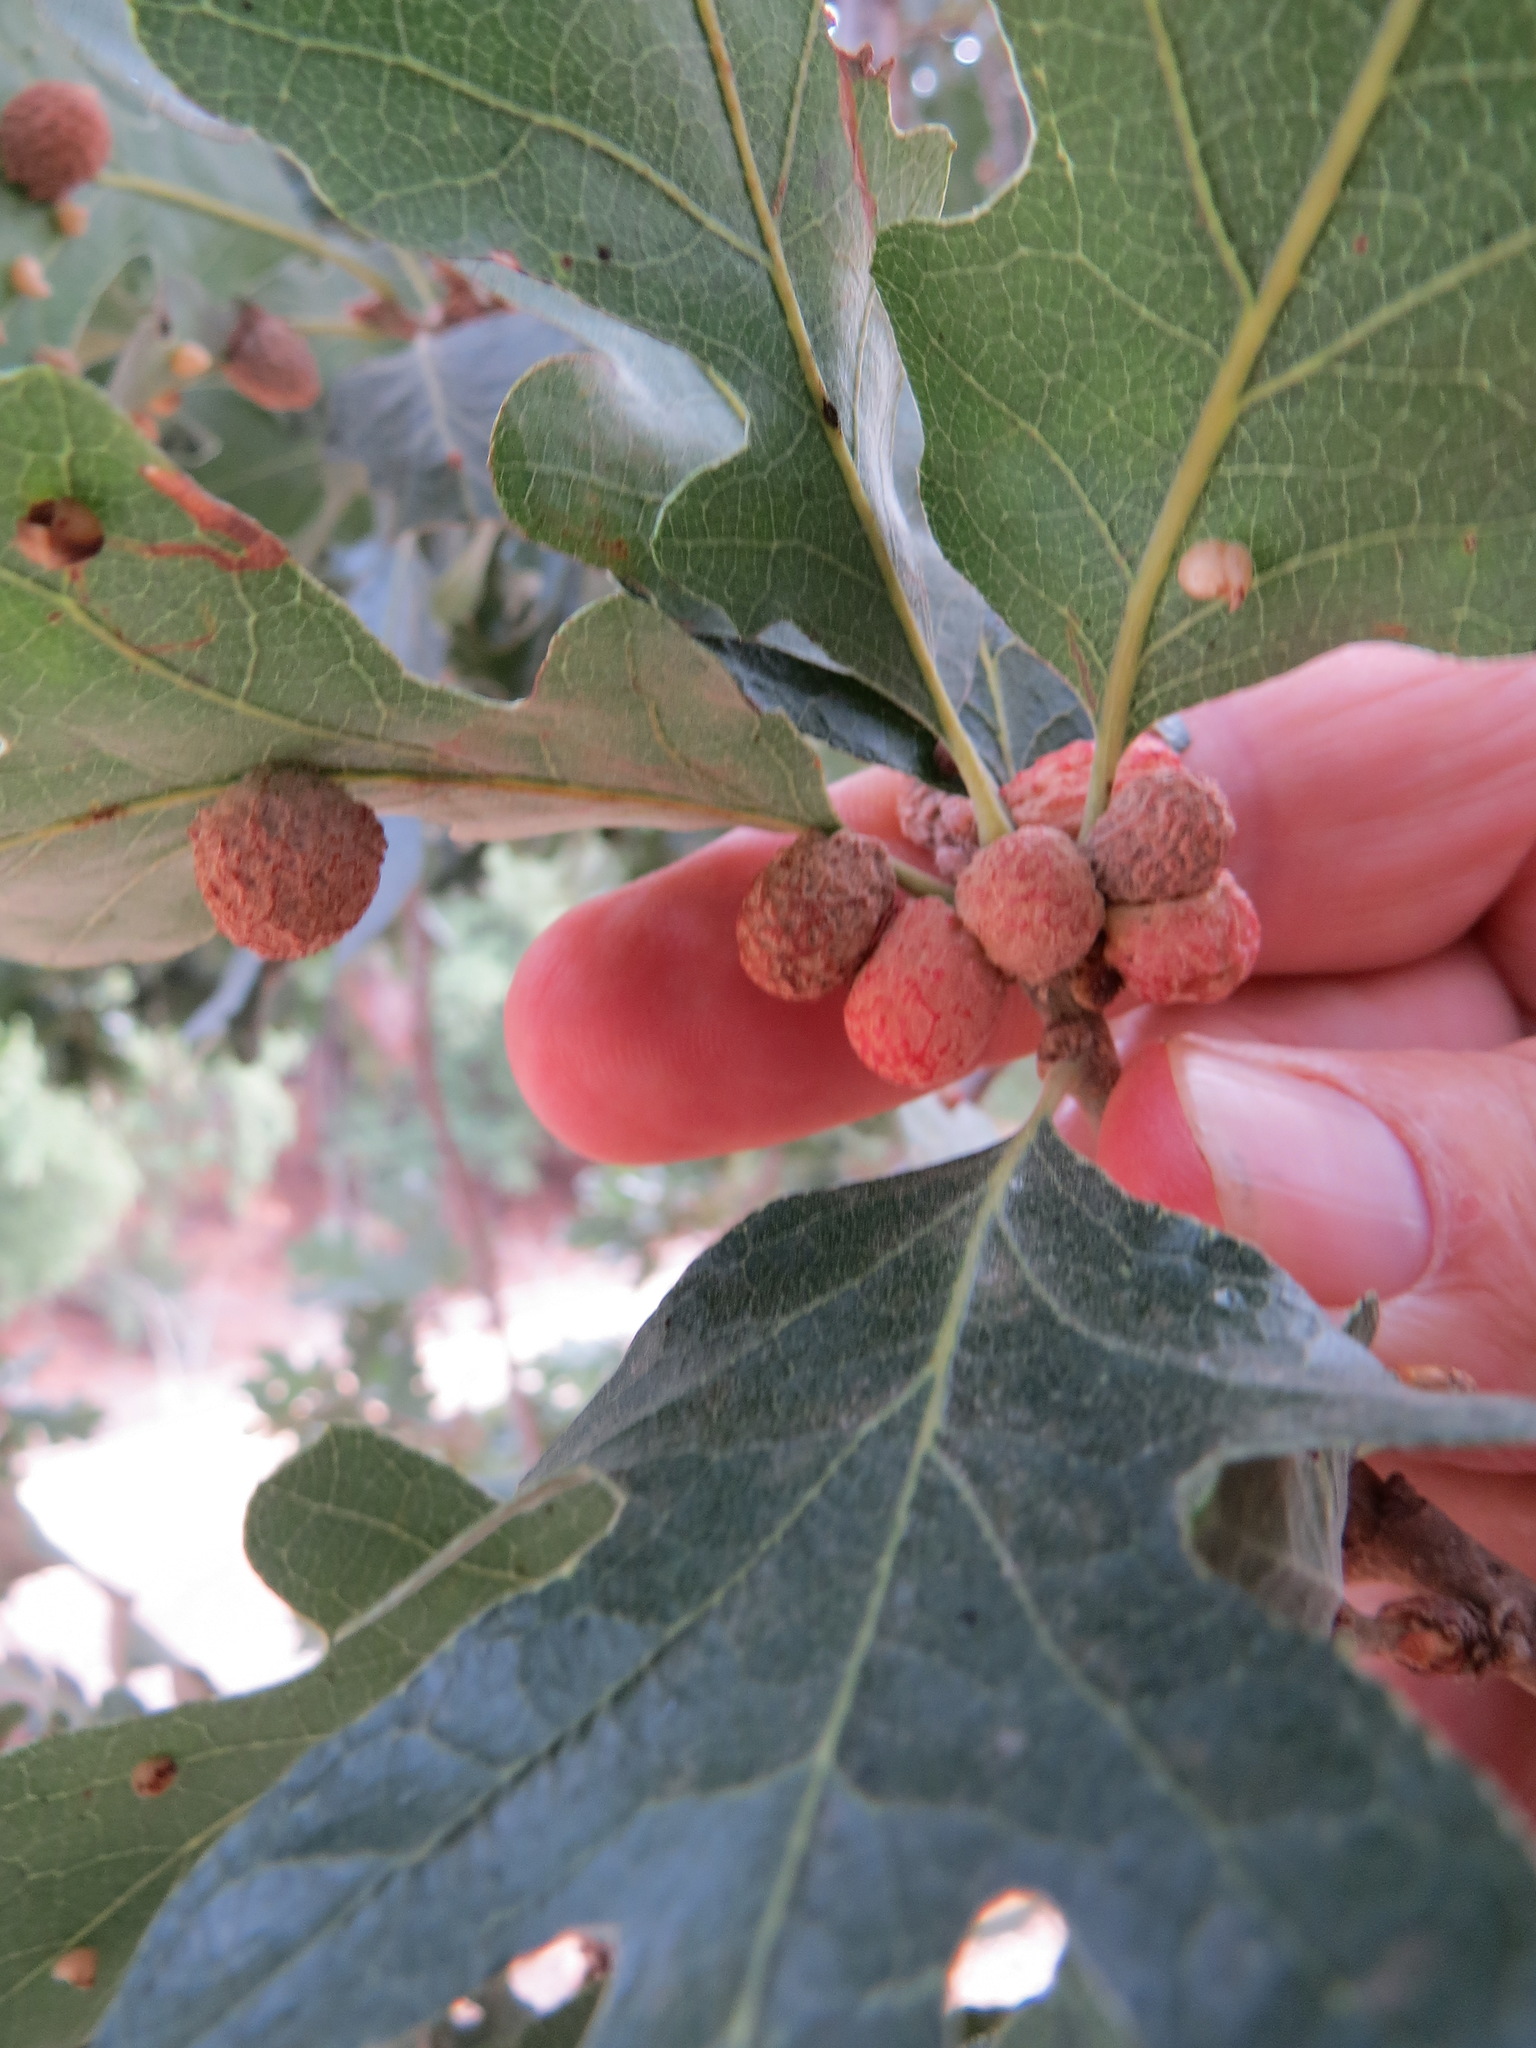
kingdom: Animalia
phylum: Arthropoda
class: Insecta
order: Hymenoptera
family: Cynipidae
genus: Cynips
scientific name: Cynips conspicua
